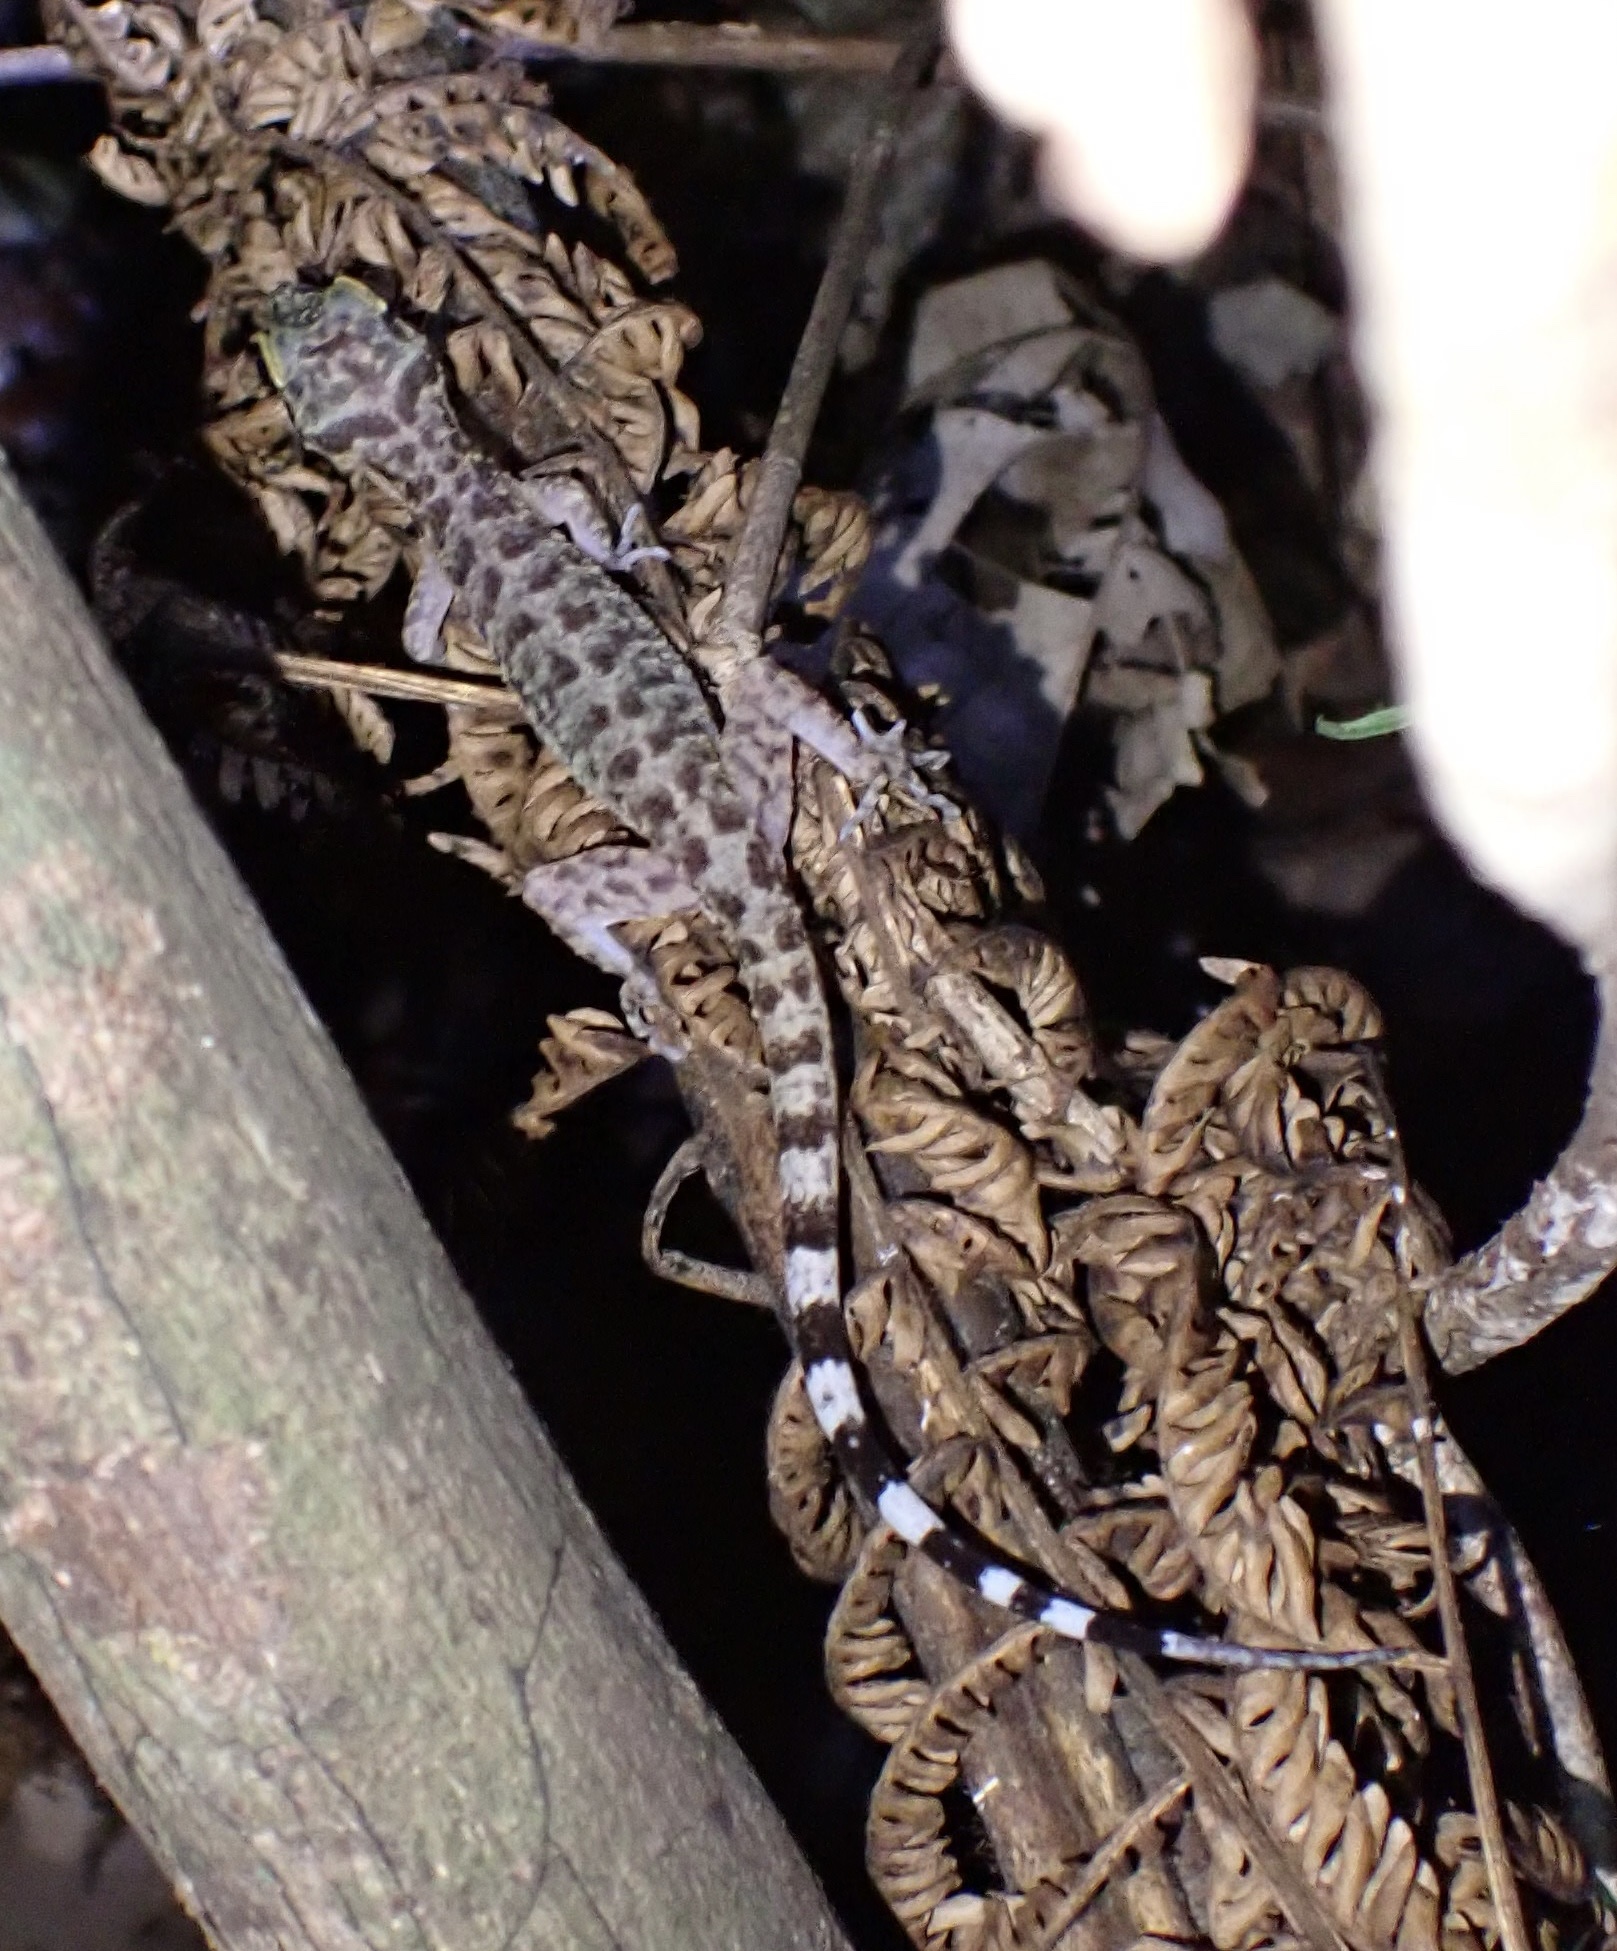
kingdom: Animalia
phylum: Chordata
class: Squamata
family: Gekkonidae
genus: Cyrtodactylus
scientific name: Cyrtodactylus papuensis
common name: Papua bow-fingered gecko
